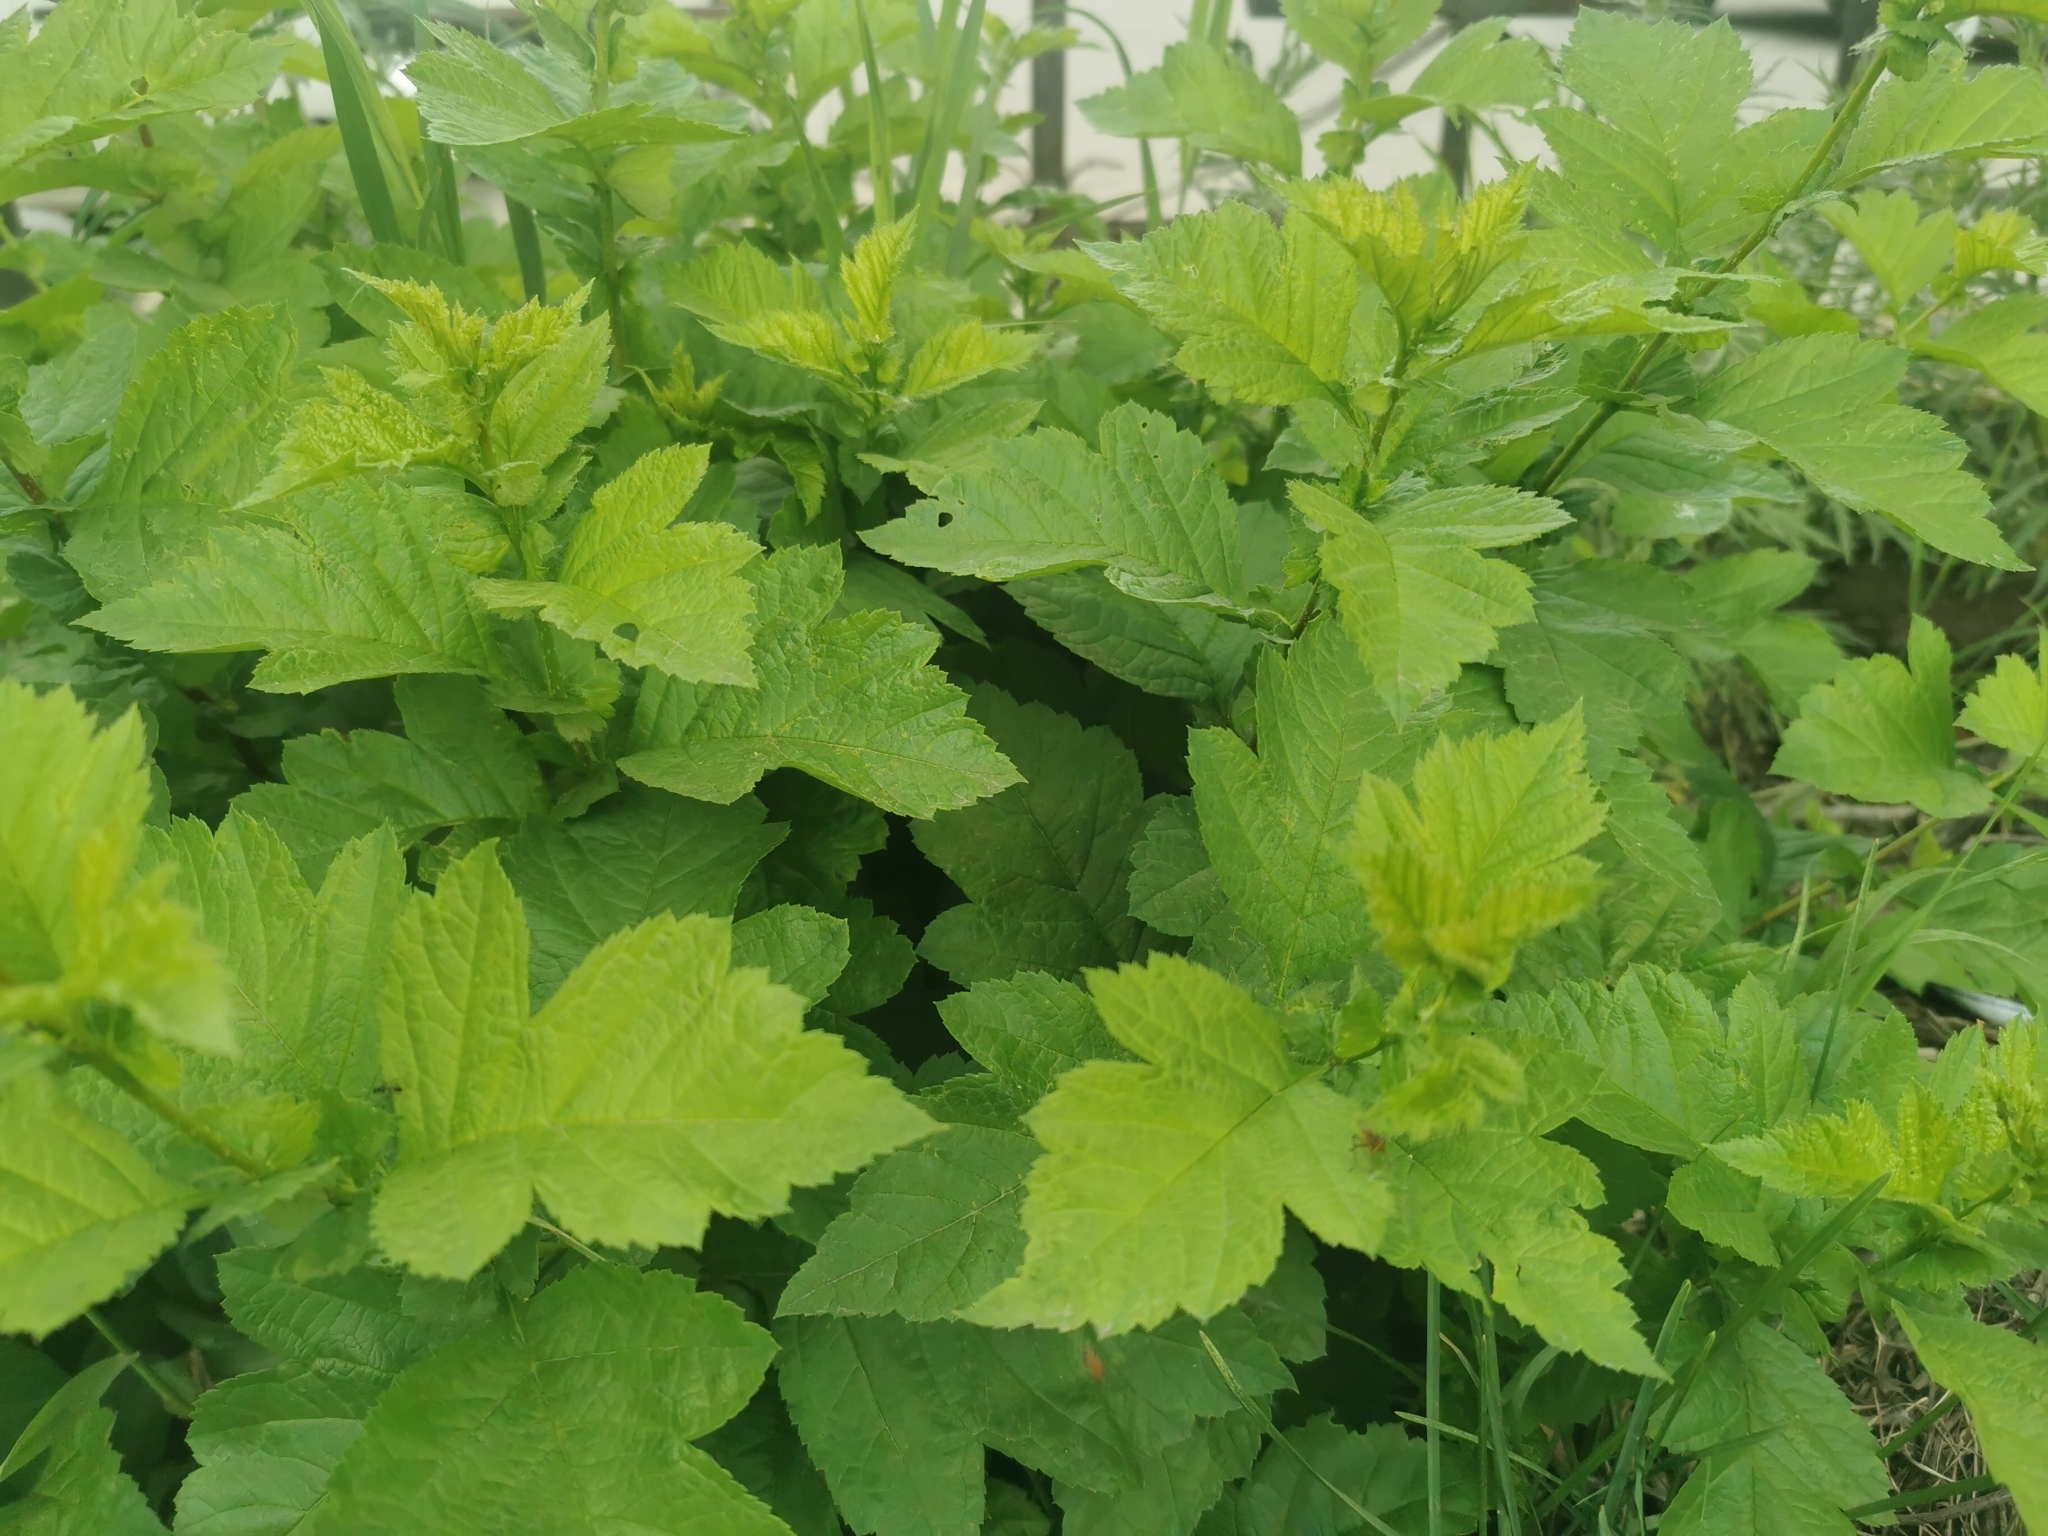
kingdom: Plantae
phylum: Tracheophyta
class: Magnoliopsida
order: Rosales
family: Rosaceae
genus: Crataegus
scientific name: Crataegus chlorosarca
